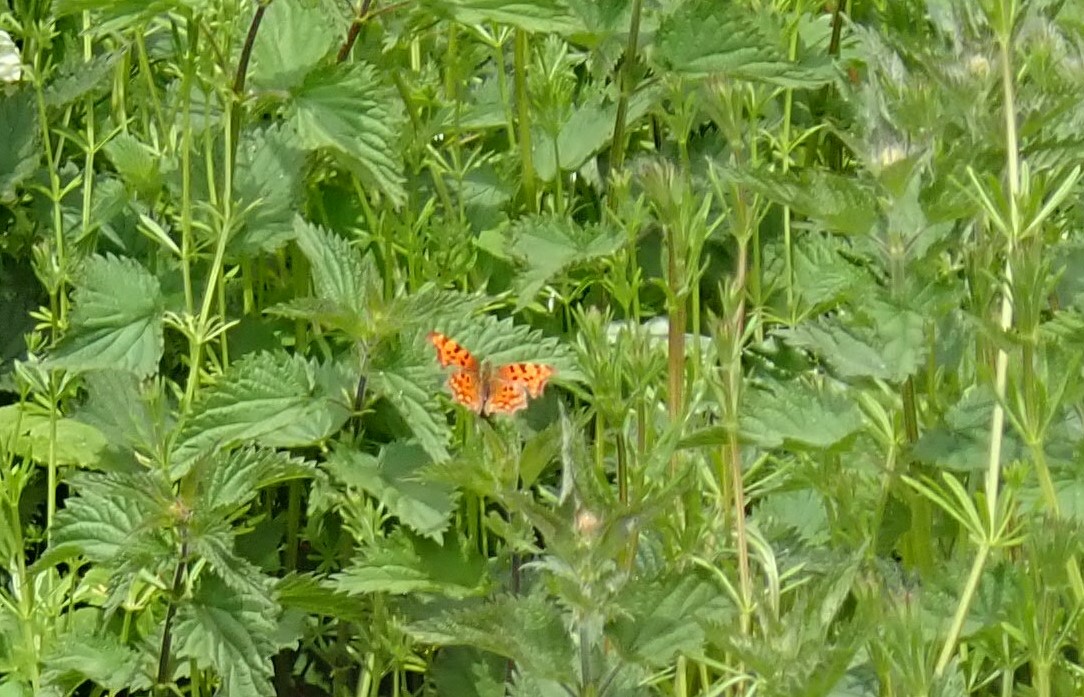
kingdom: Animalia
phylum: Arthropoda
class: Insecta
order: Lepidoptera
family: Nymphalidae
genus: Polygonia
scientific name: Polygonia c-album
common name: Comma
